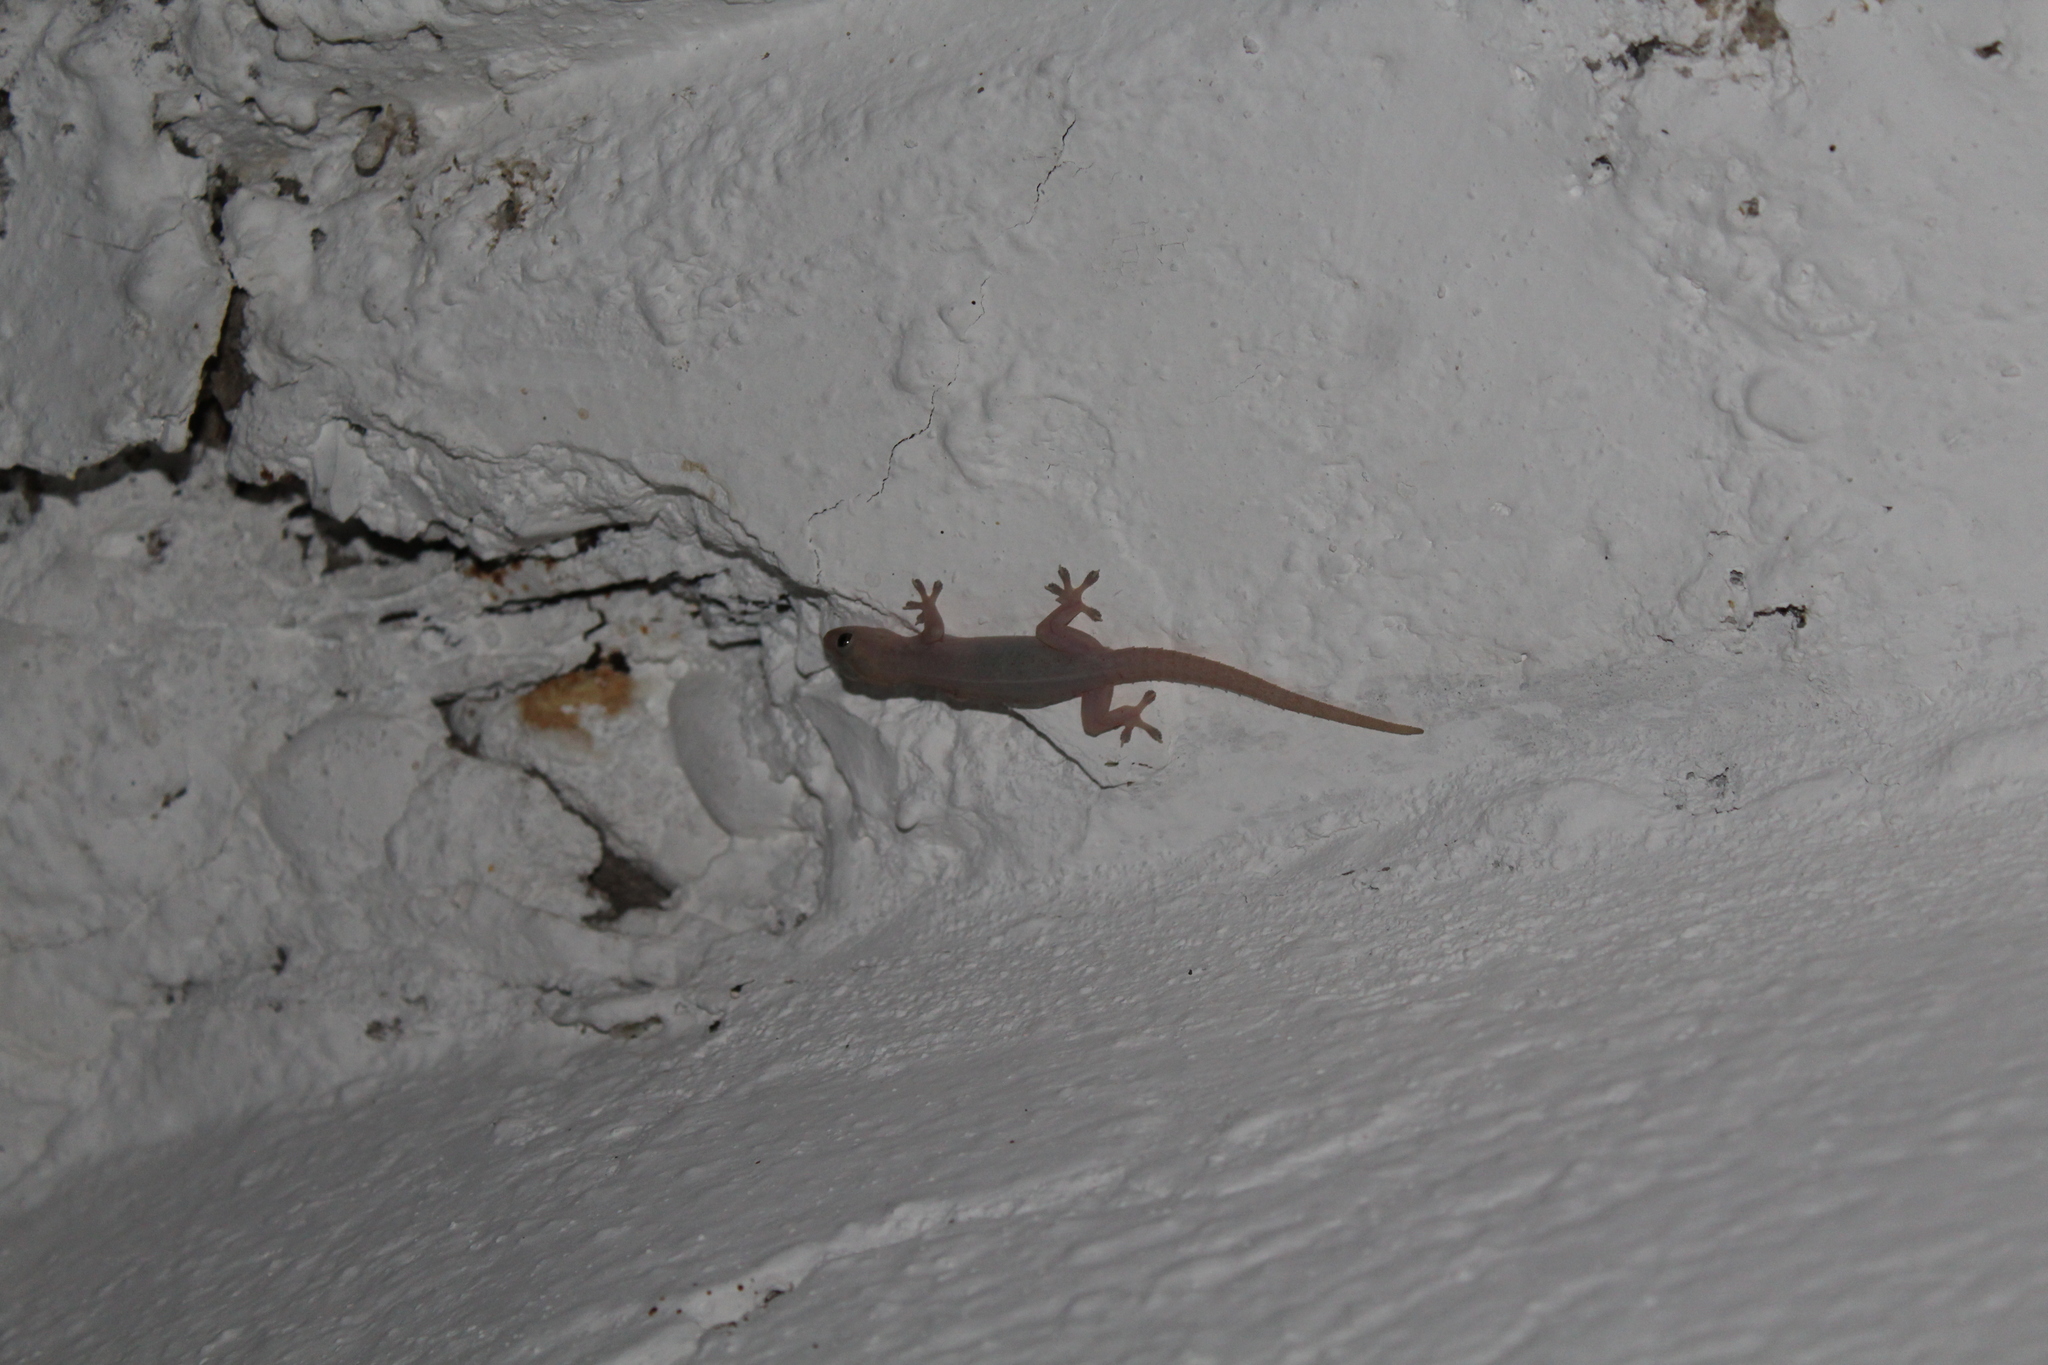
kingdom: Animalia
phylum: Chordata
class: Squamata
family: Gekkonidae
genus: Hemidactylus
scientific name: Hemidactylus frenatus
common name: Common house gecko
